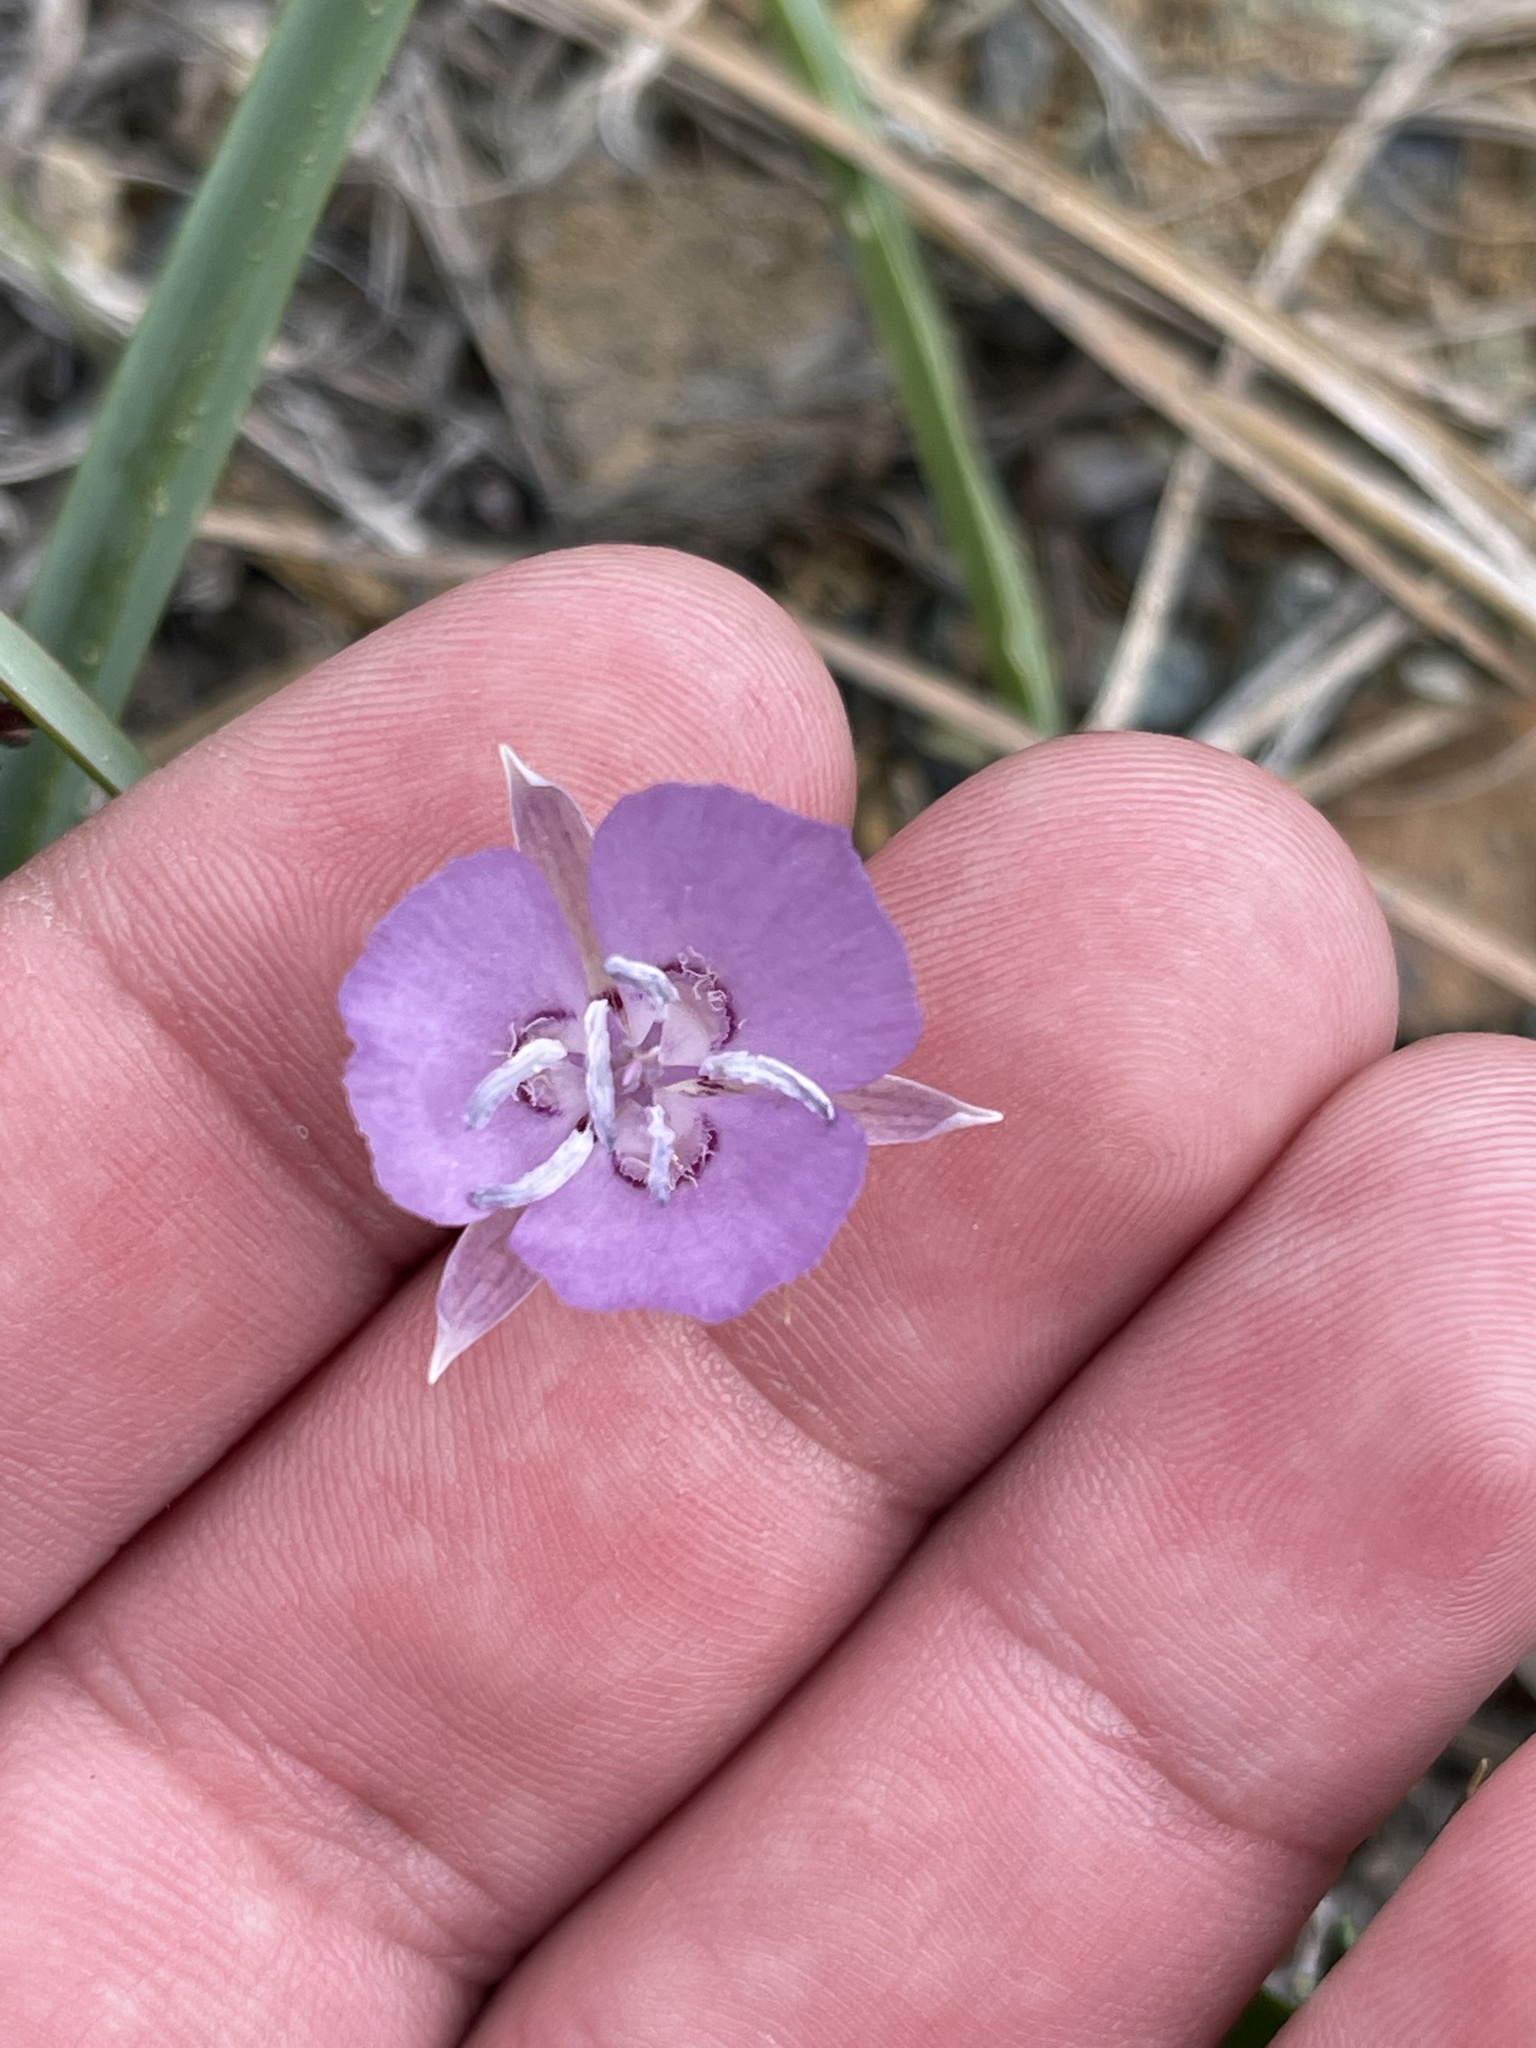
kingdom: Plantae
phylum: Tracheophyta
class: Liliopsida
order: Liliales
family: Liliaceae
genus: Calochortus
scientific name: Calochortus nudus
